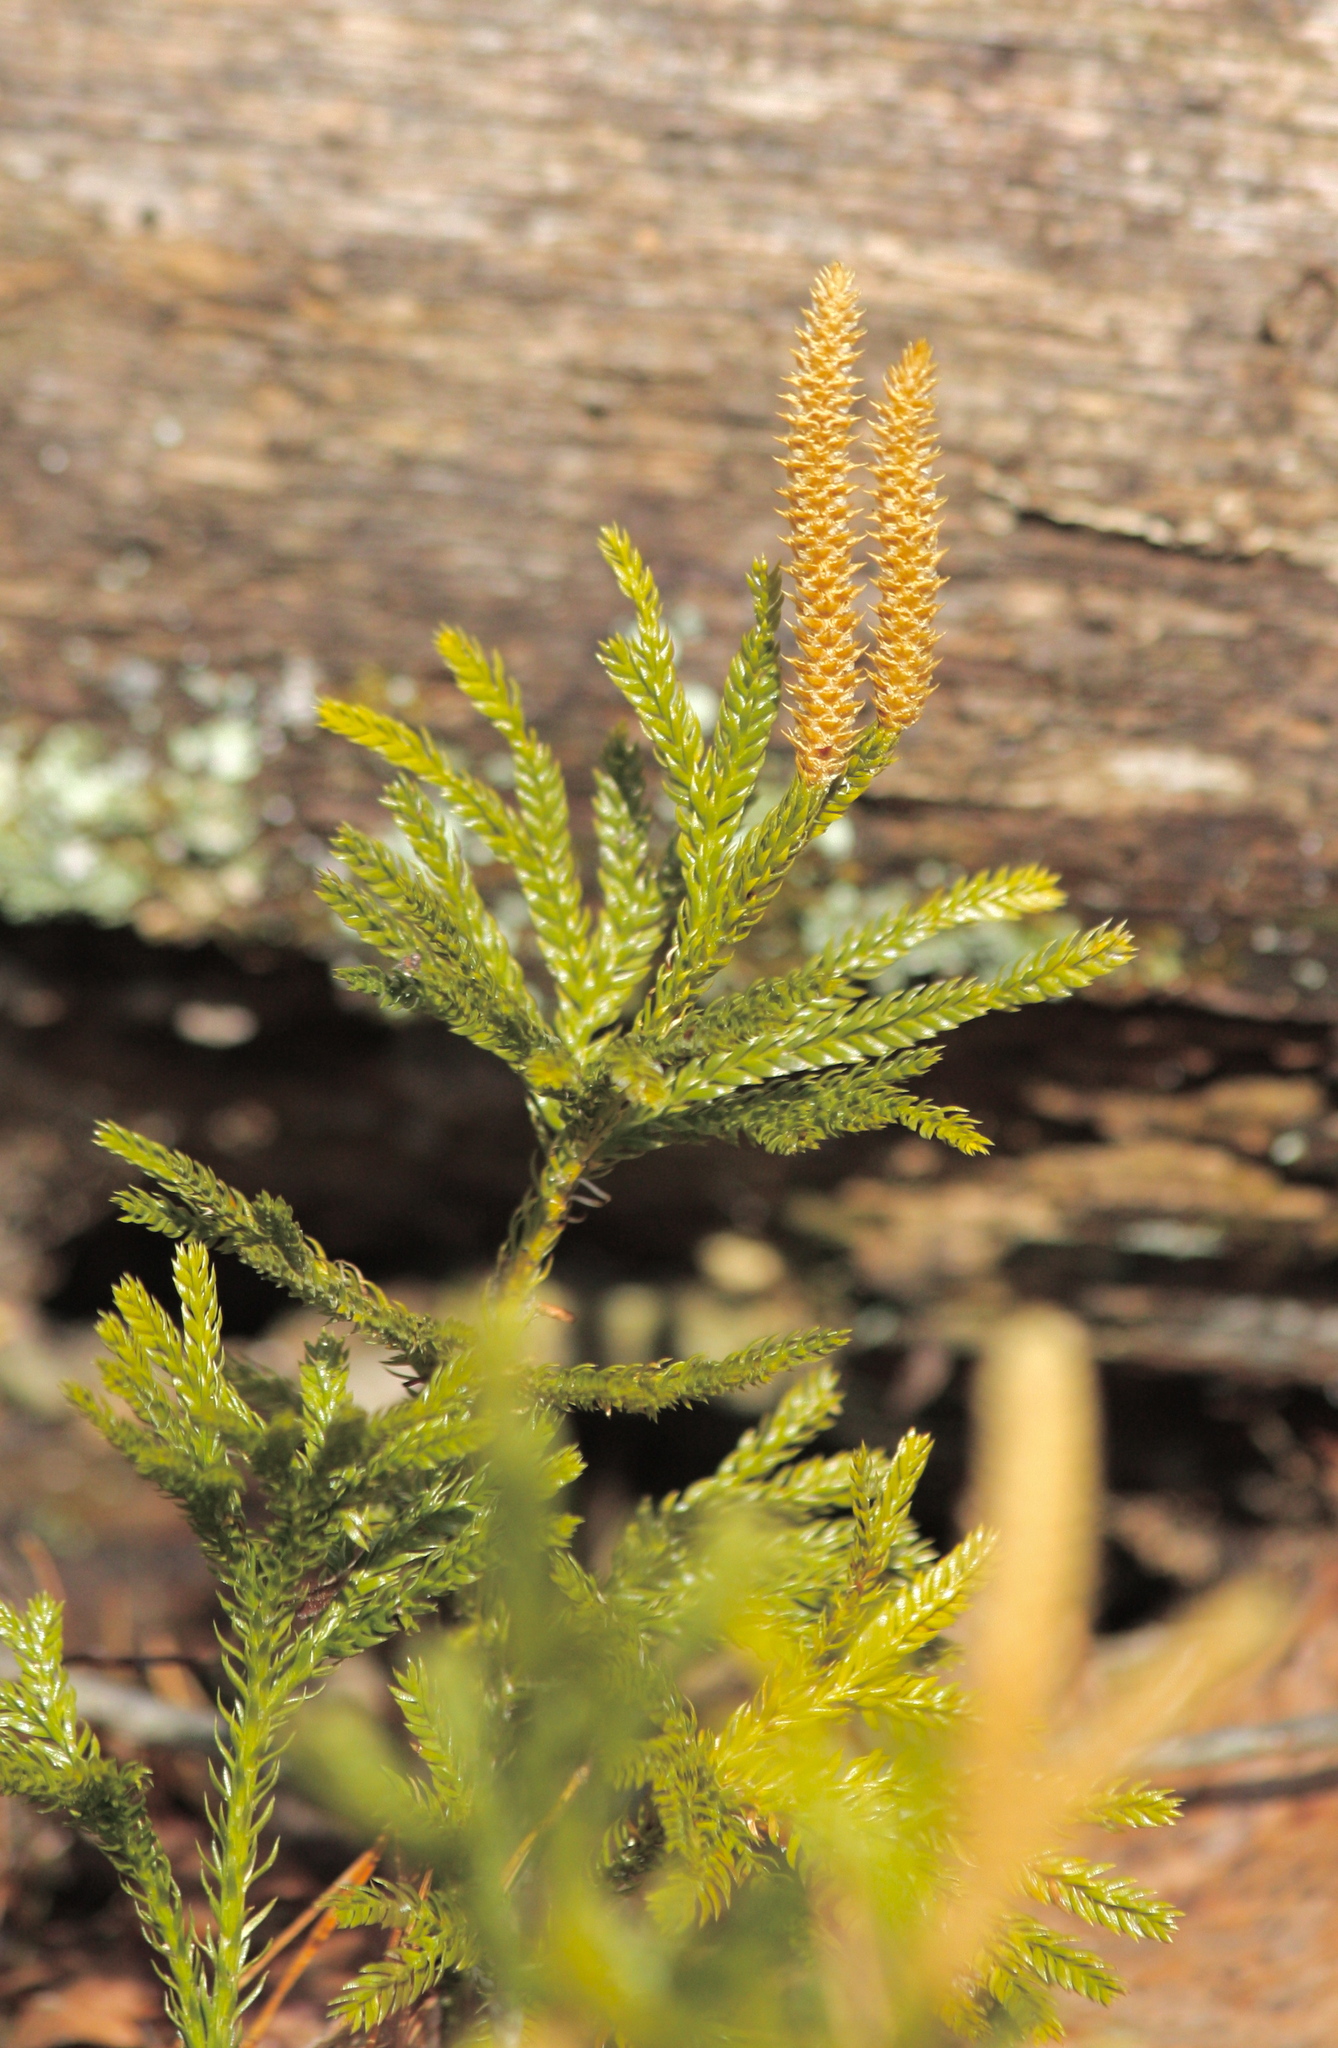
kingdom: Plantae
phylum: Tracheophyta
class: Lycopodiopsida
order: Lycopodiales
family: Lycopodiaceae
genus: Dendrolycopodium
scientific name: Dendrolycopodium obscurum
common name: Common ground-pine
